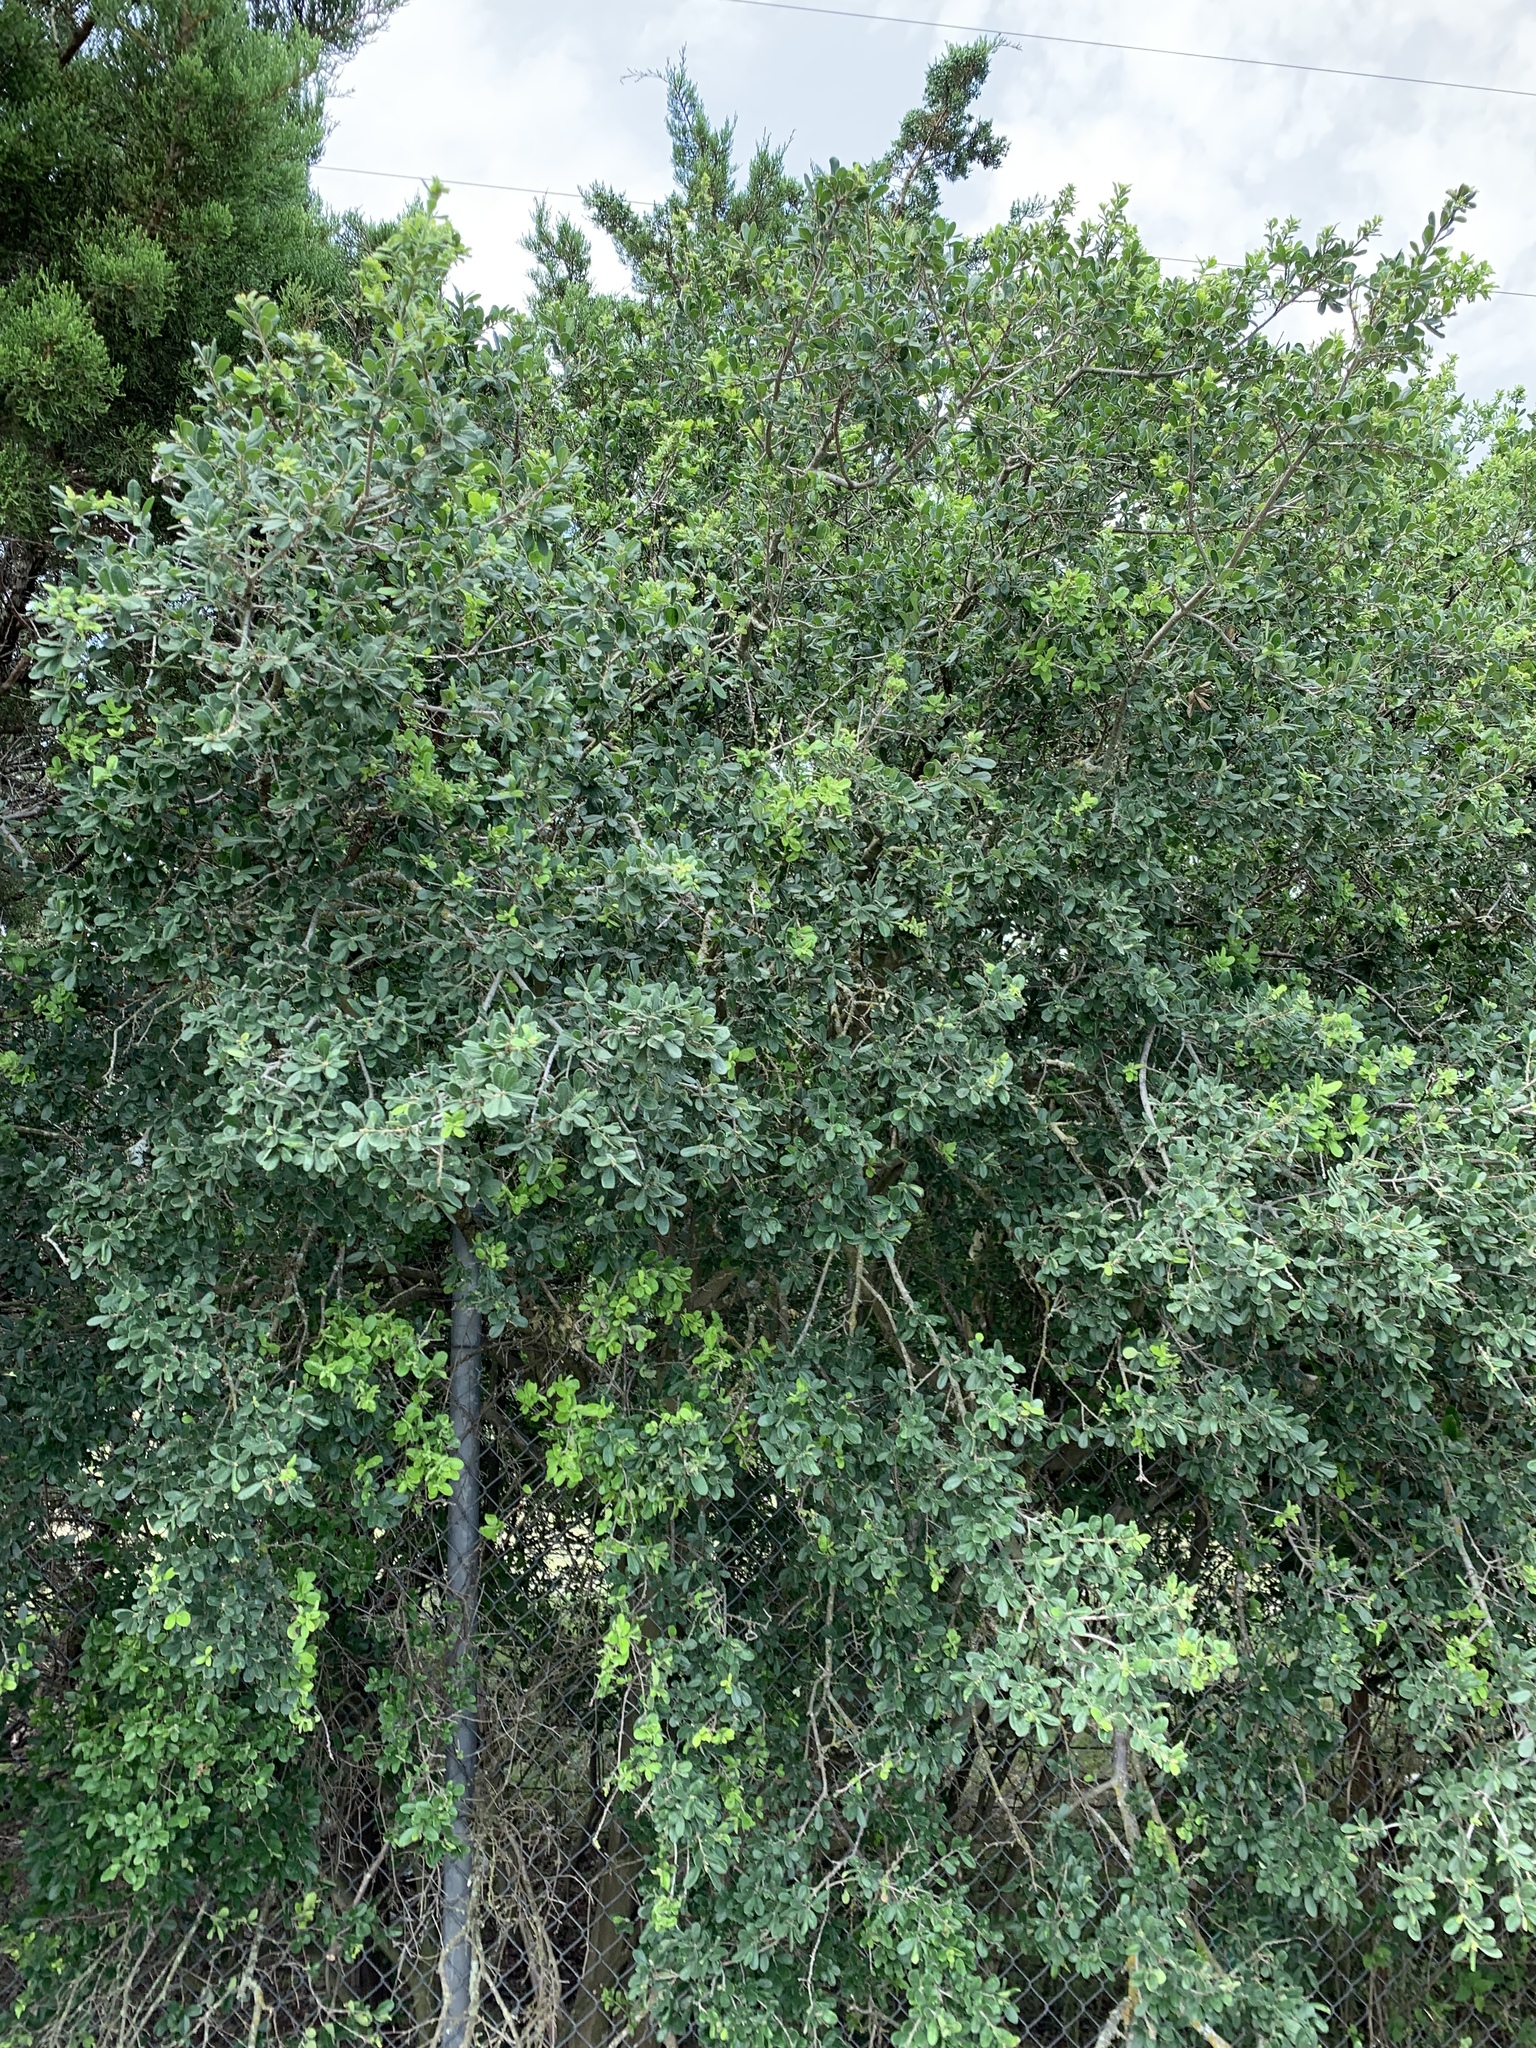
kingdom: Plantae
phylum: Tracheophyta
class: Magnoliopsida
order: Ericales
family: Ebenaceae
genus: Diospyros
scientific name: Diospyros texana
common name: Texas persimmon
